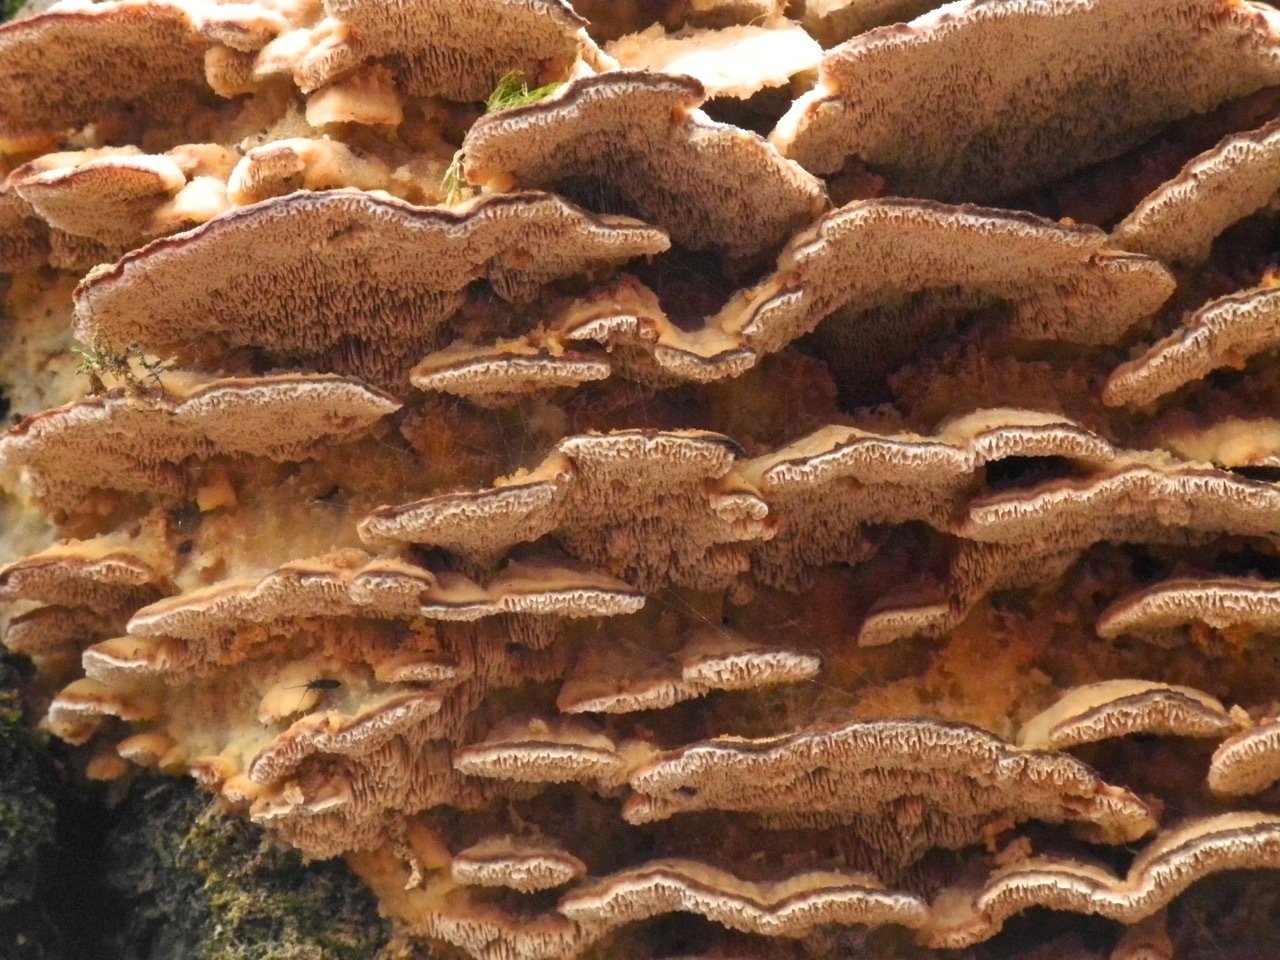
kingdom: Fungi
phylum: Basidiomycota
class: Agaricomycetes
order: Polyporales
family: Meruliaceae
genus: Phlebia
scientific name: Phlebia tremellosa
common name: Jelly rot
